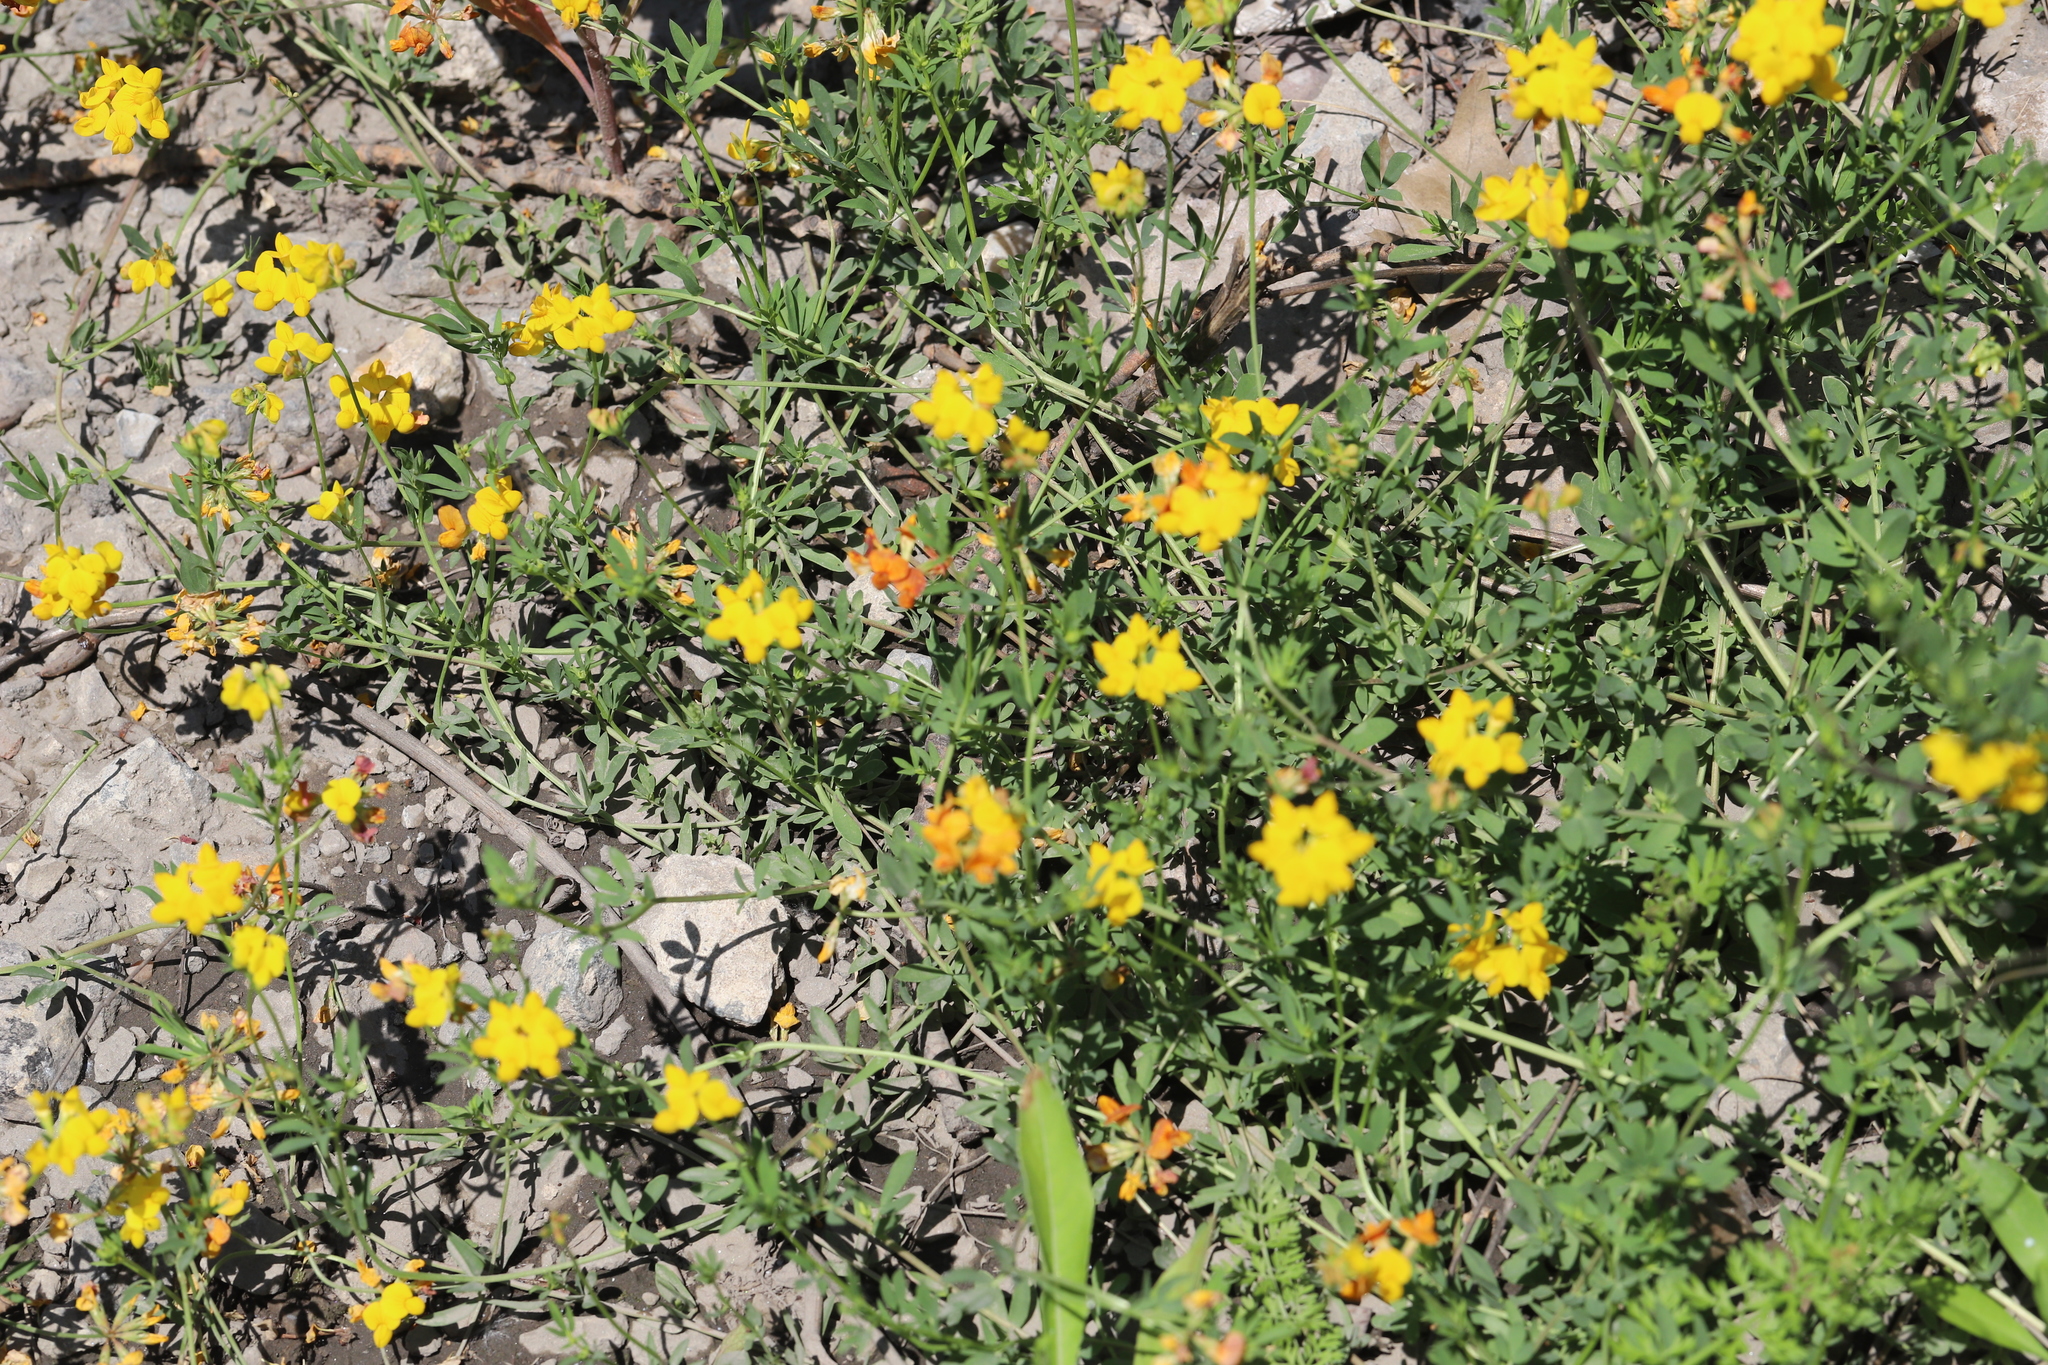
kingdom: Plantae
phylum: Tracheophyta
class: Magnoliopsida
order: Fabales
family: Fabaceae
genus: Lotus
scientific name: Lotus corniculatus
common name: Common bird's-foot-trefoil
